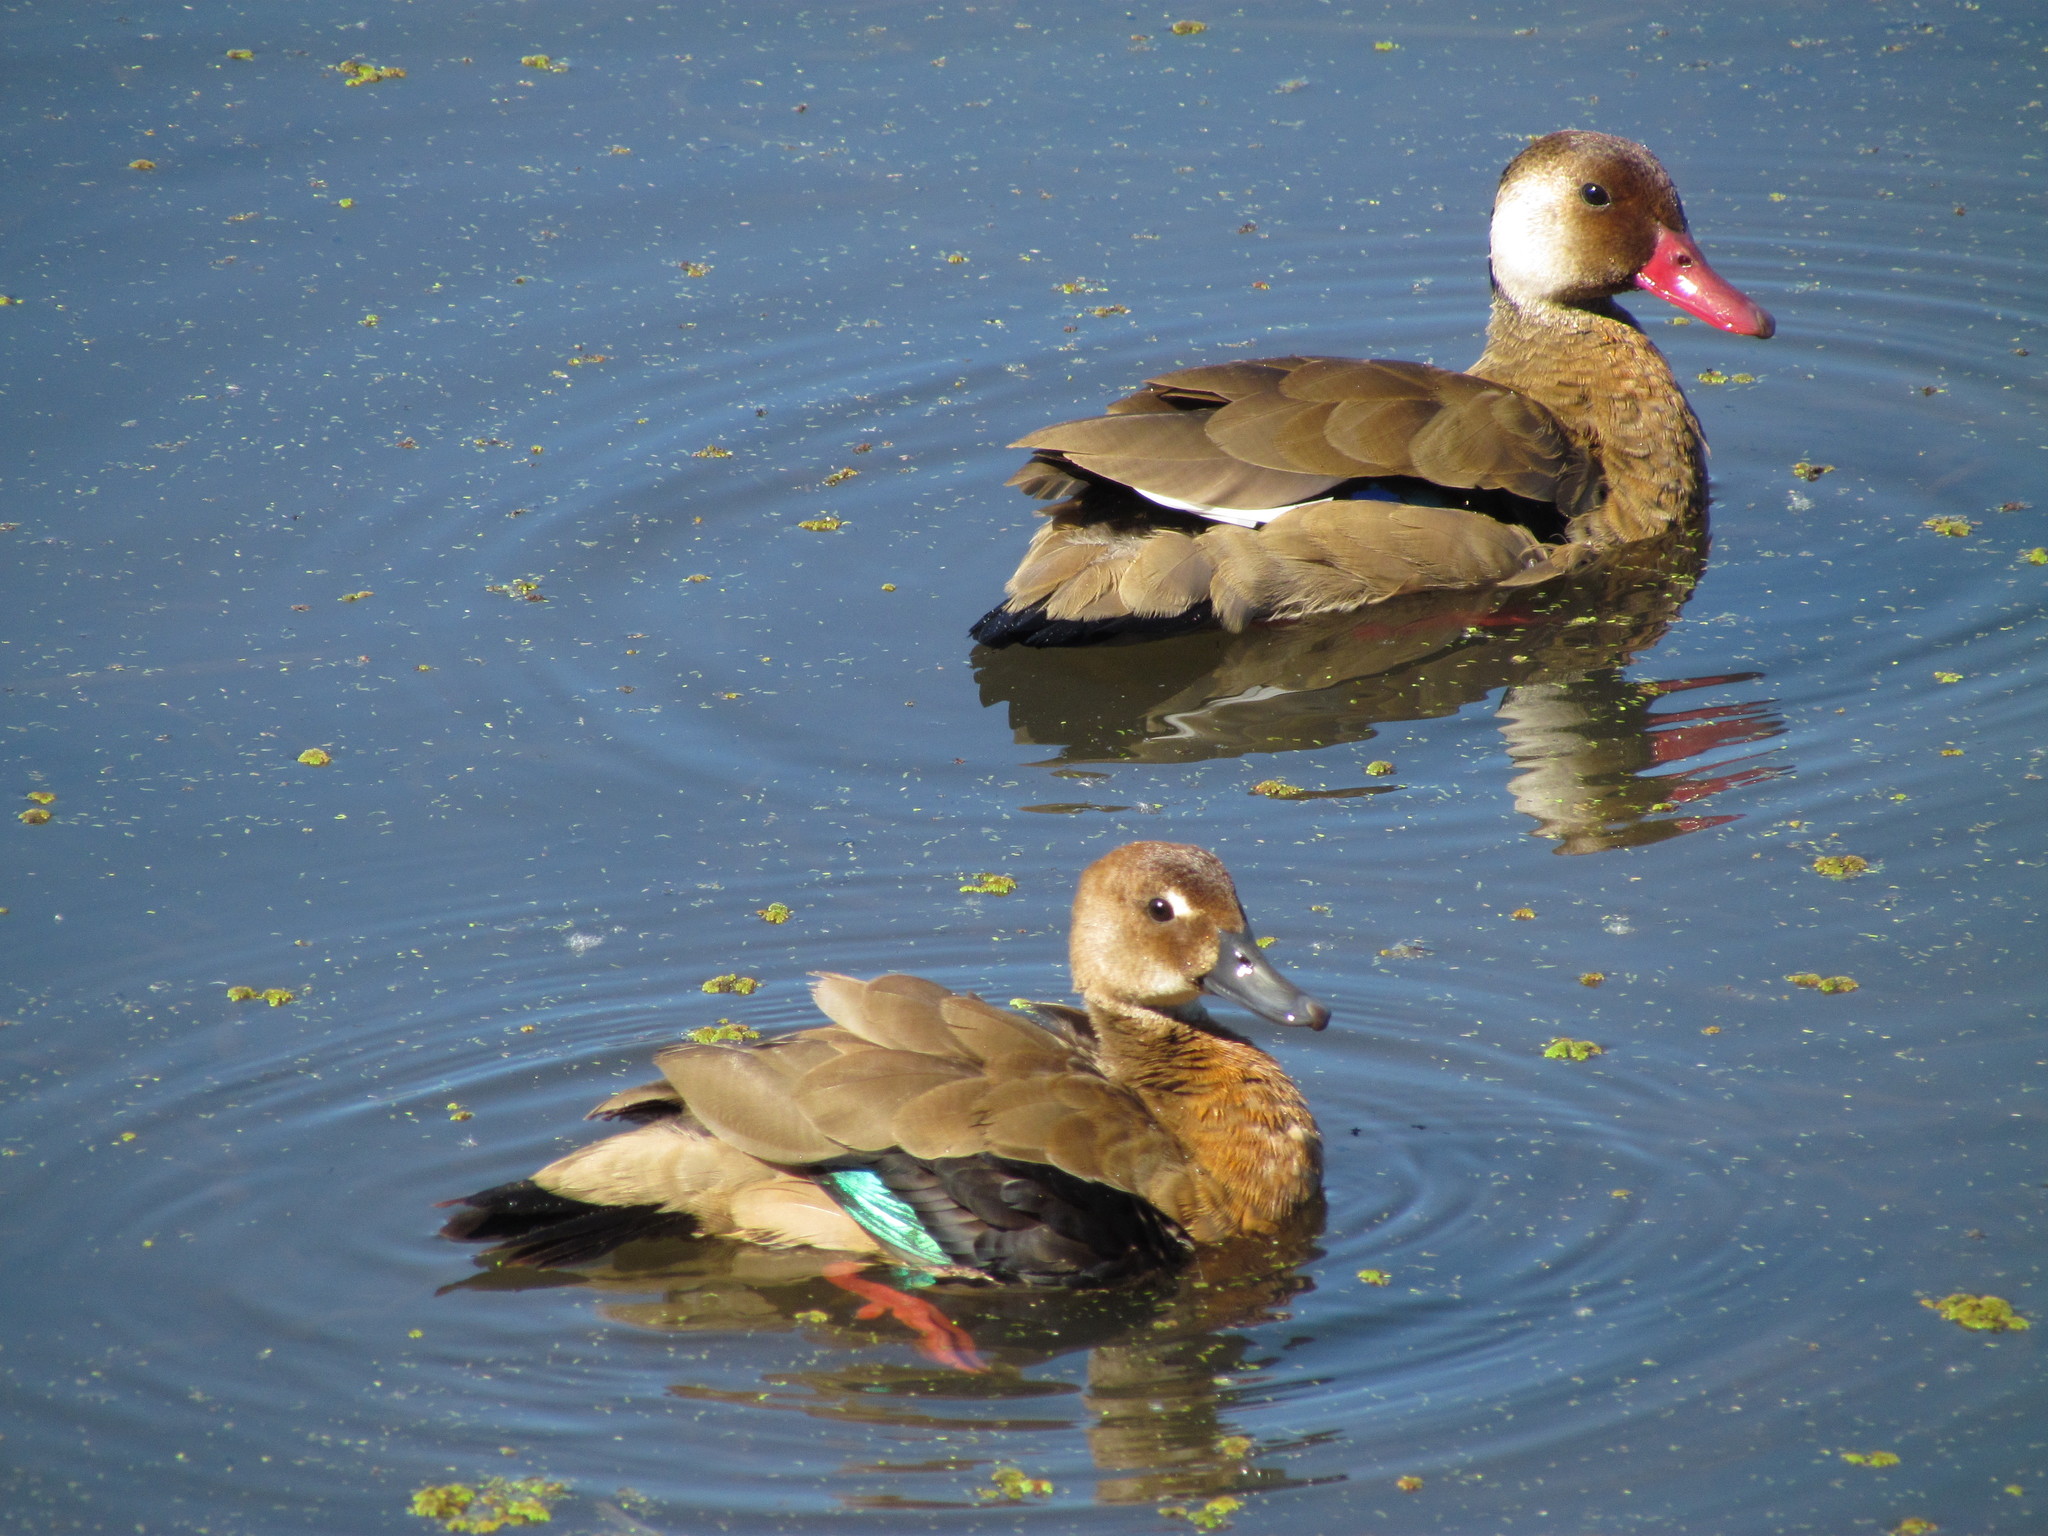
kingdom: Animalia
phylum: Chordata
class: Aves
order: Anseriformes
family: Anatidae
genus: Amazonetta
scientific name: Amazonetta brasiliensis
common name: Brazilian teal
